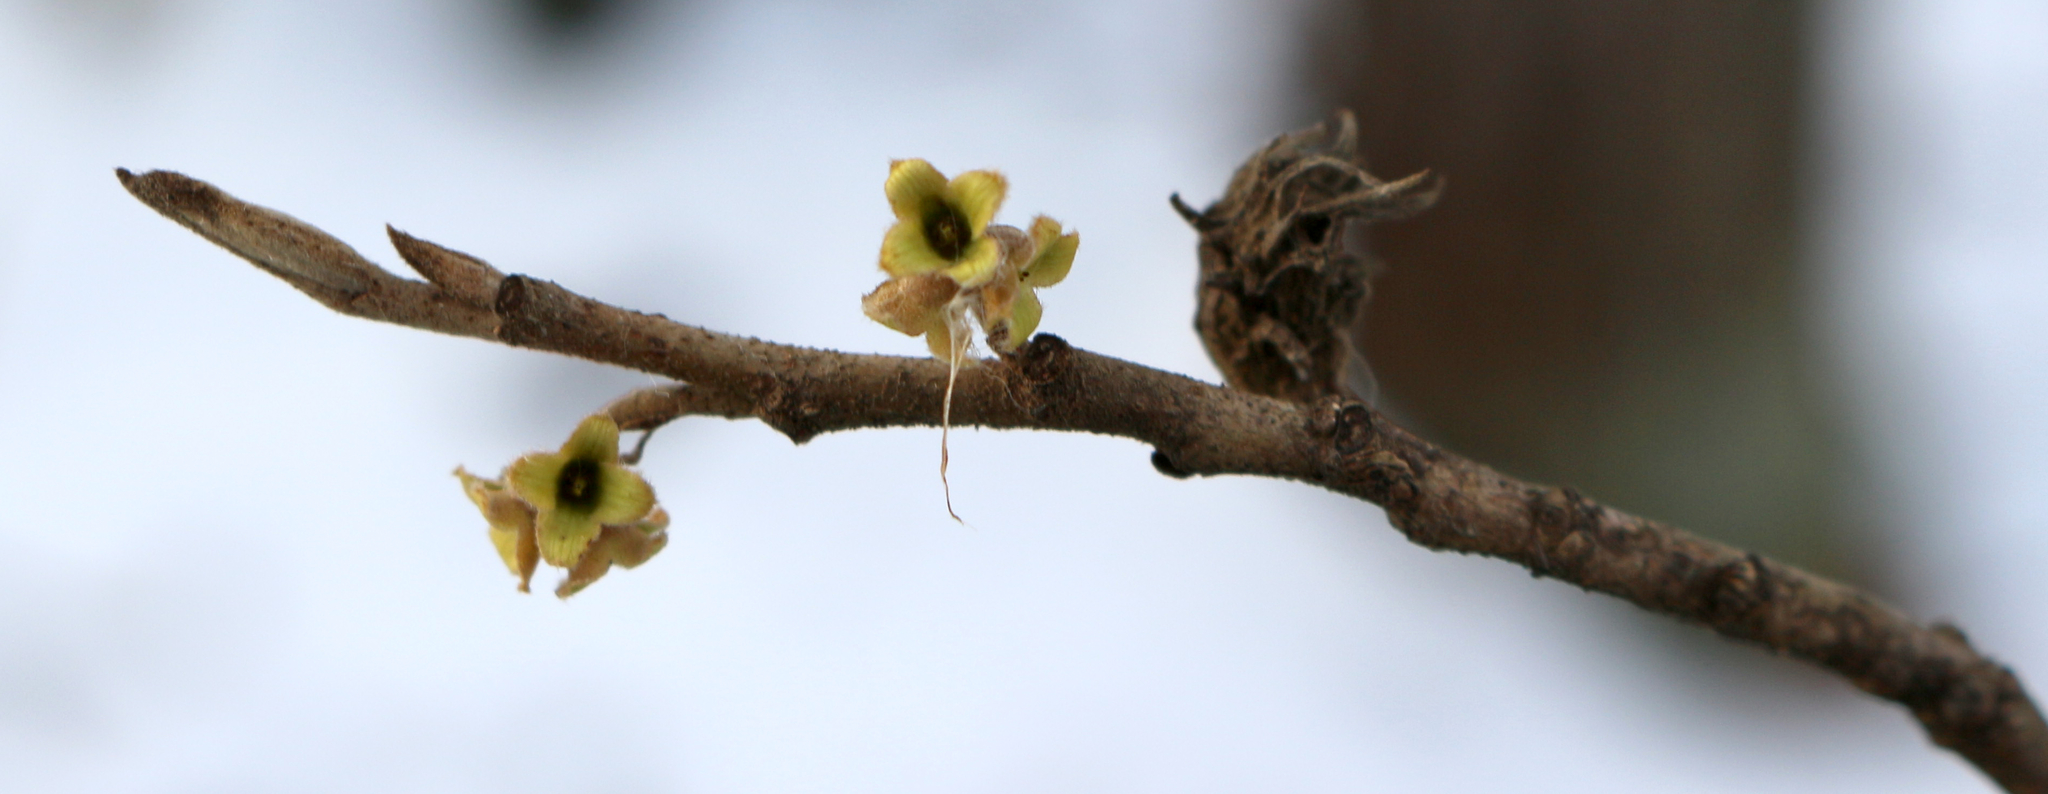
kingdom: Plantae
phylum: Tracheophyta
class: Magnoliopsida
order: Saxifragales
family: Hamamelidaceae
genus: Hamamelis
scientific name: Hamamelis virginiana
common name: Witch-hazel
